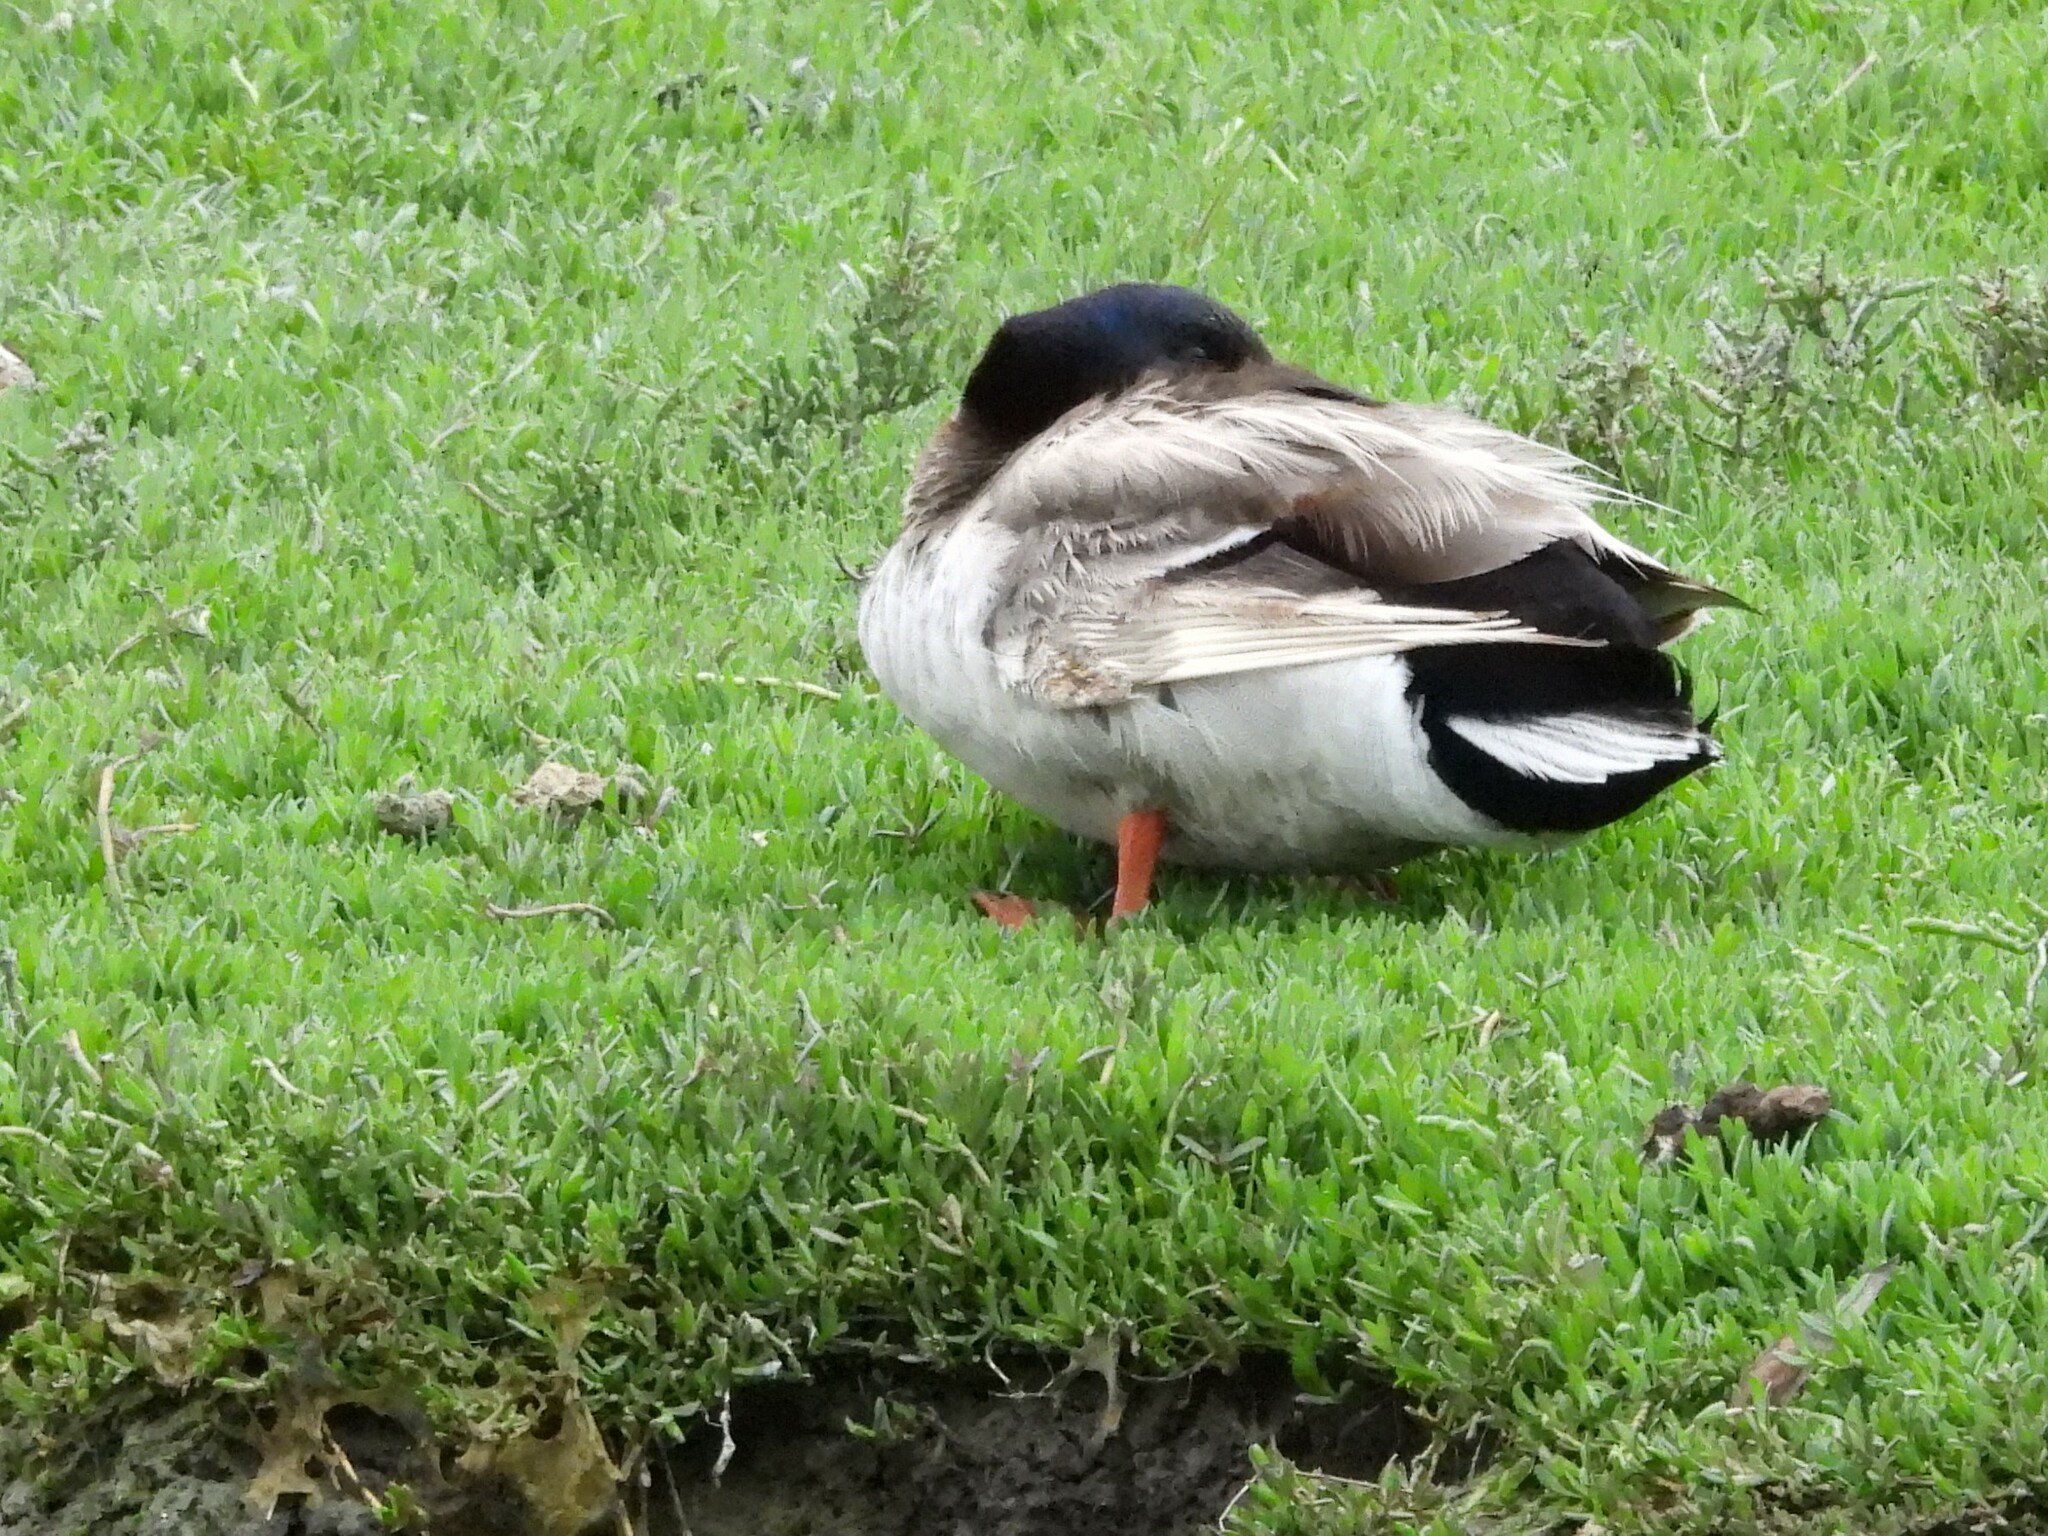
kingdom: Animalia
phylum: Chordata
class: Aves
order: Anseriformes
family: Anatidae
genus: Anas
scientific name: Anas platyrhynchos
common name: Mallard
